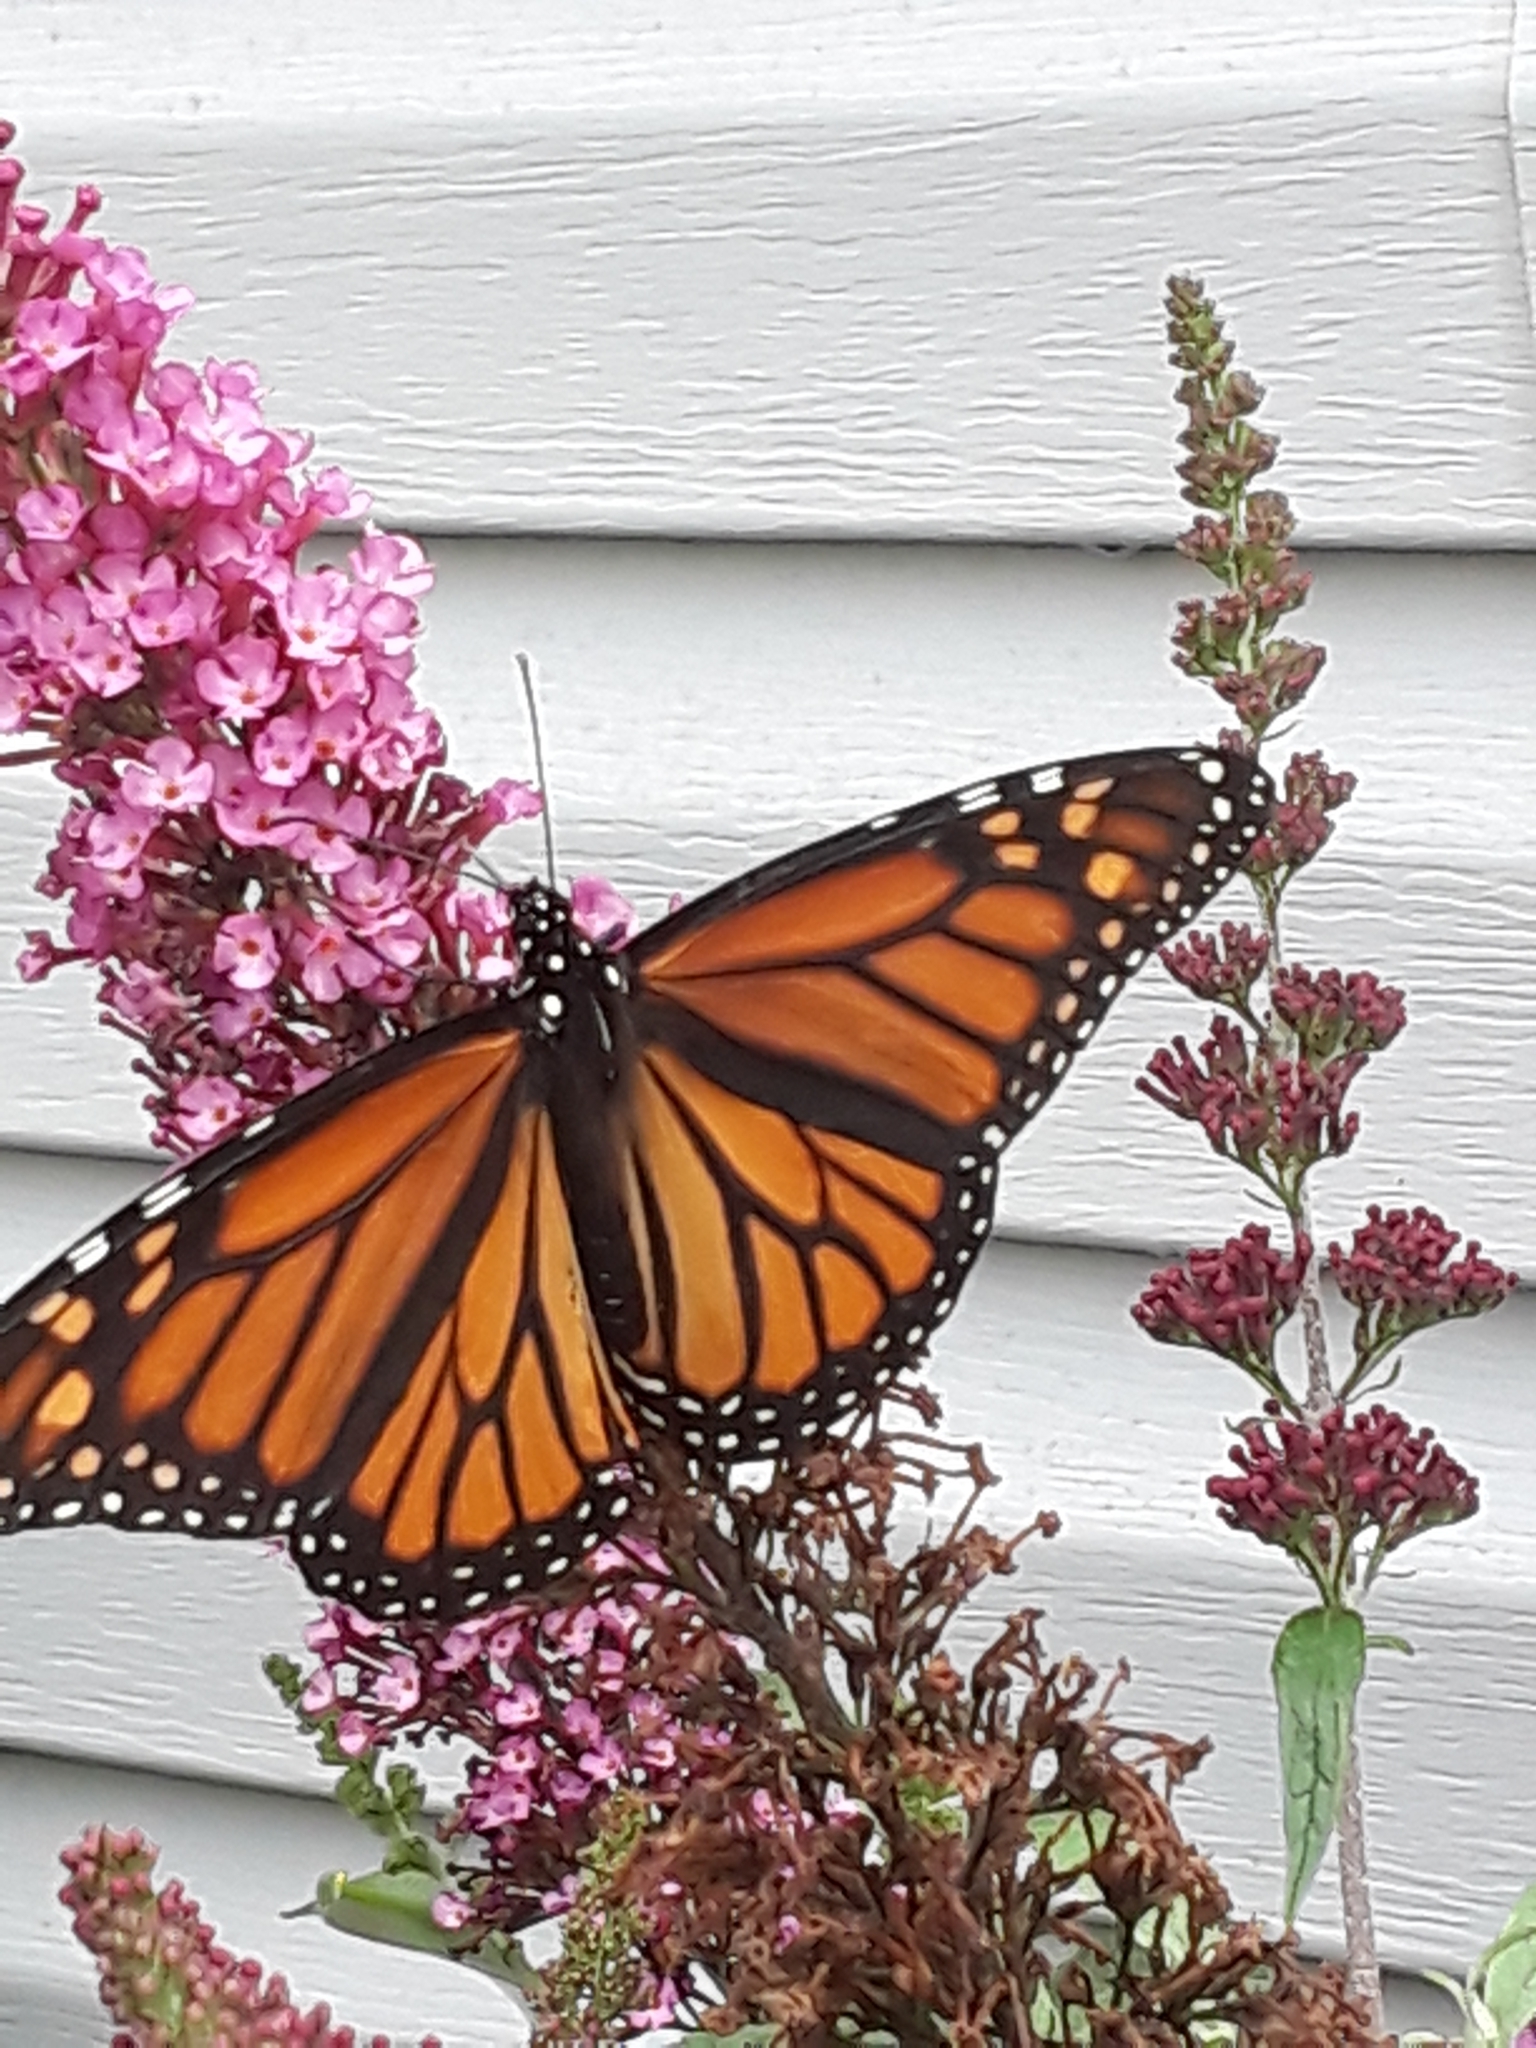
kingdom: Animalia
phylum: Arthropoda
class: Insecta
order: Lepidoptera
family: Nymphalidae
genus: Danaus
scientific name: Danaus plexippus
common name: Monarch
